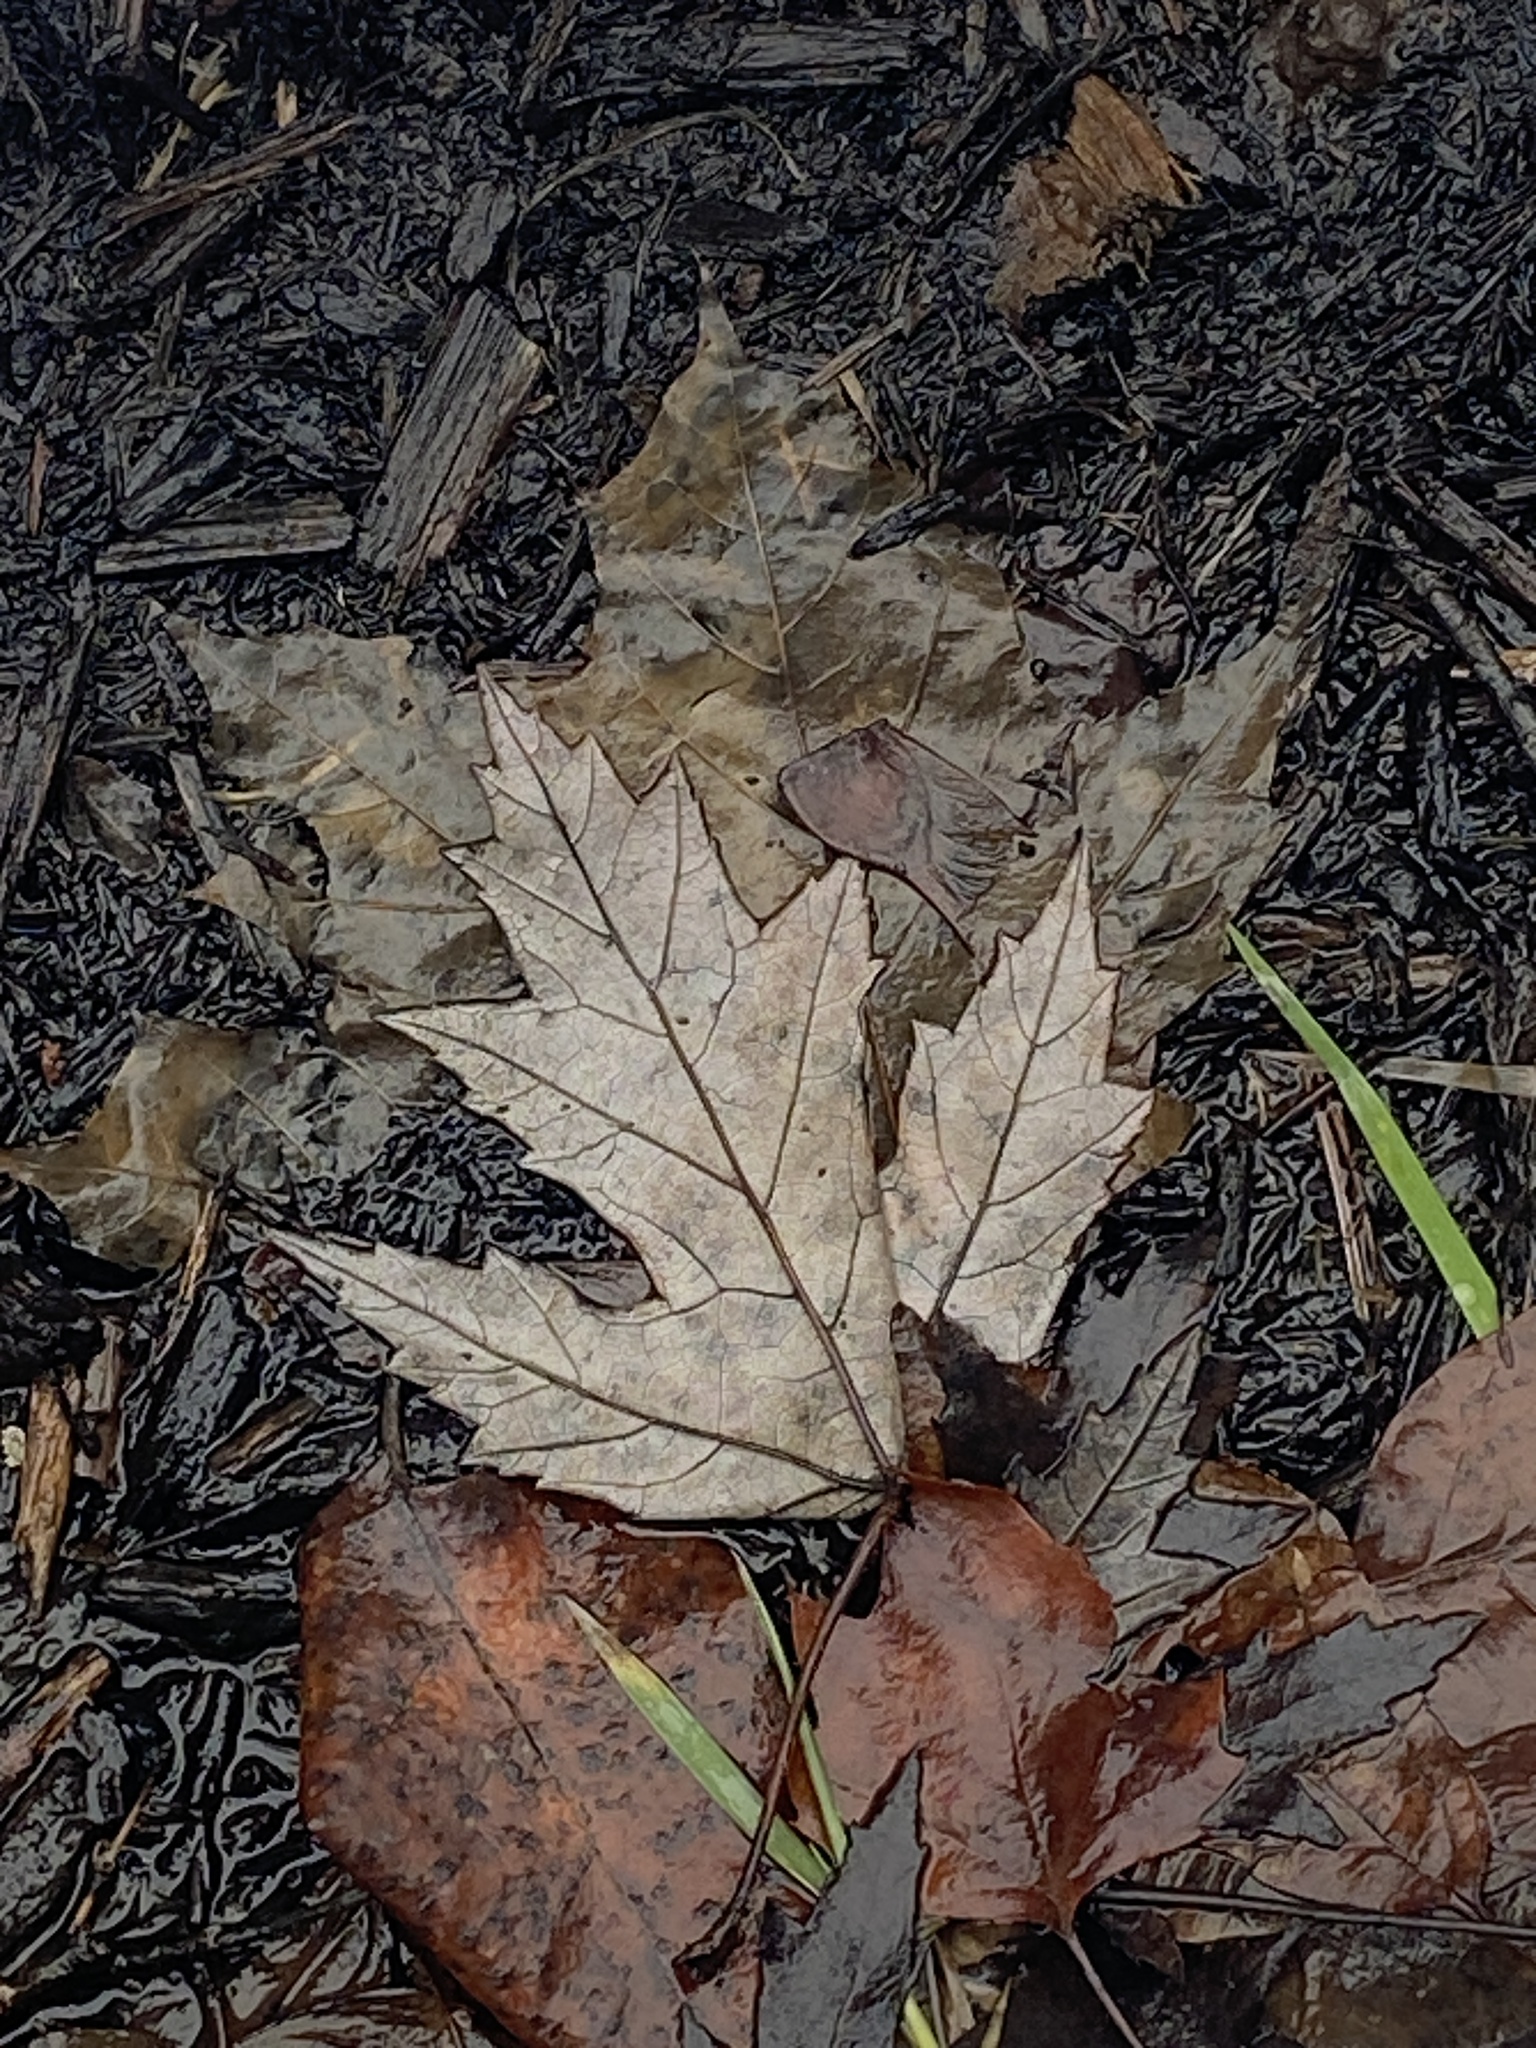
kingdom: Plantae
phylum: Tracheophyta
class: Magnoliopsida
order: Sapindales
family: Sapindaceae
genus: Acer
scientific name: Acer saccharinum
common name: Silver maple
